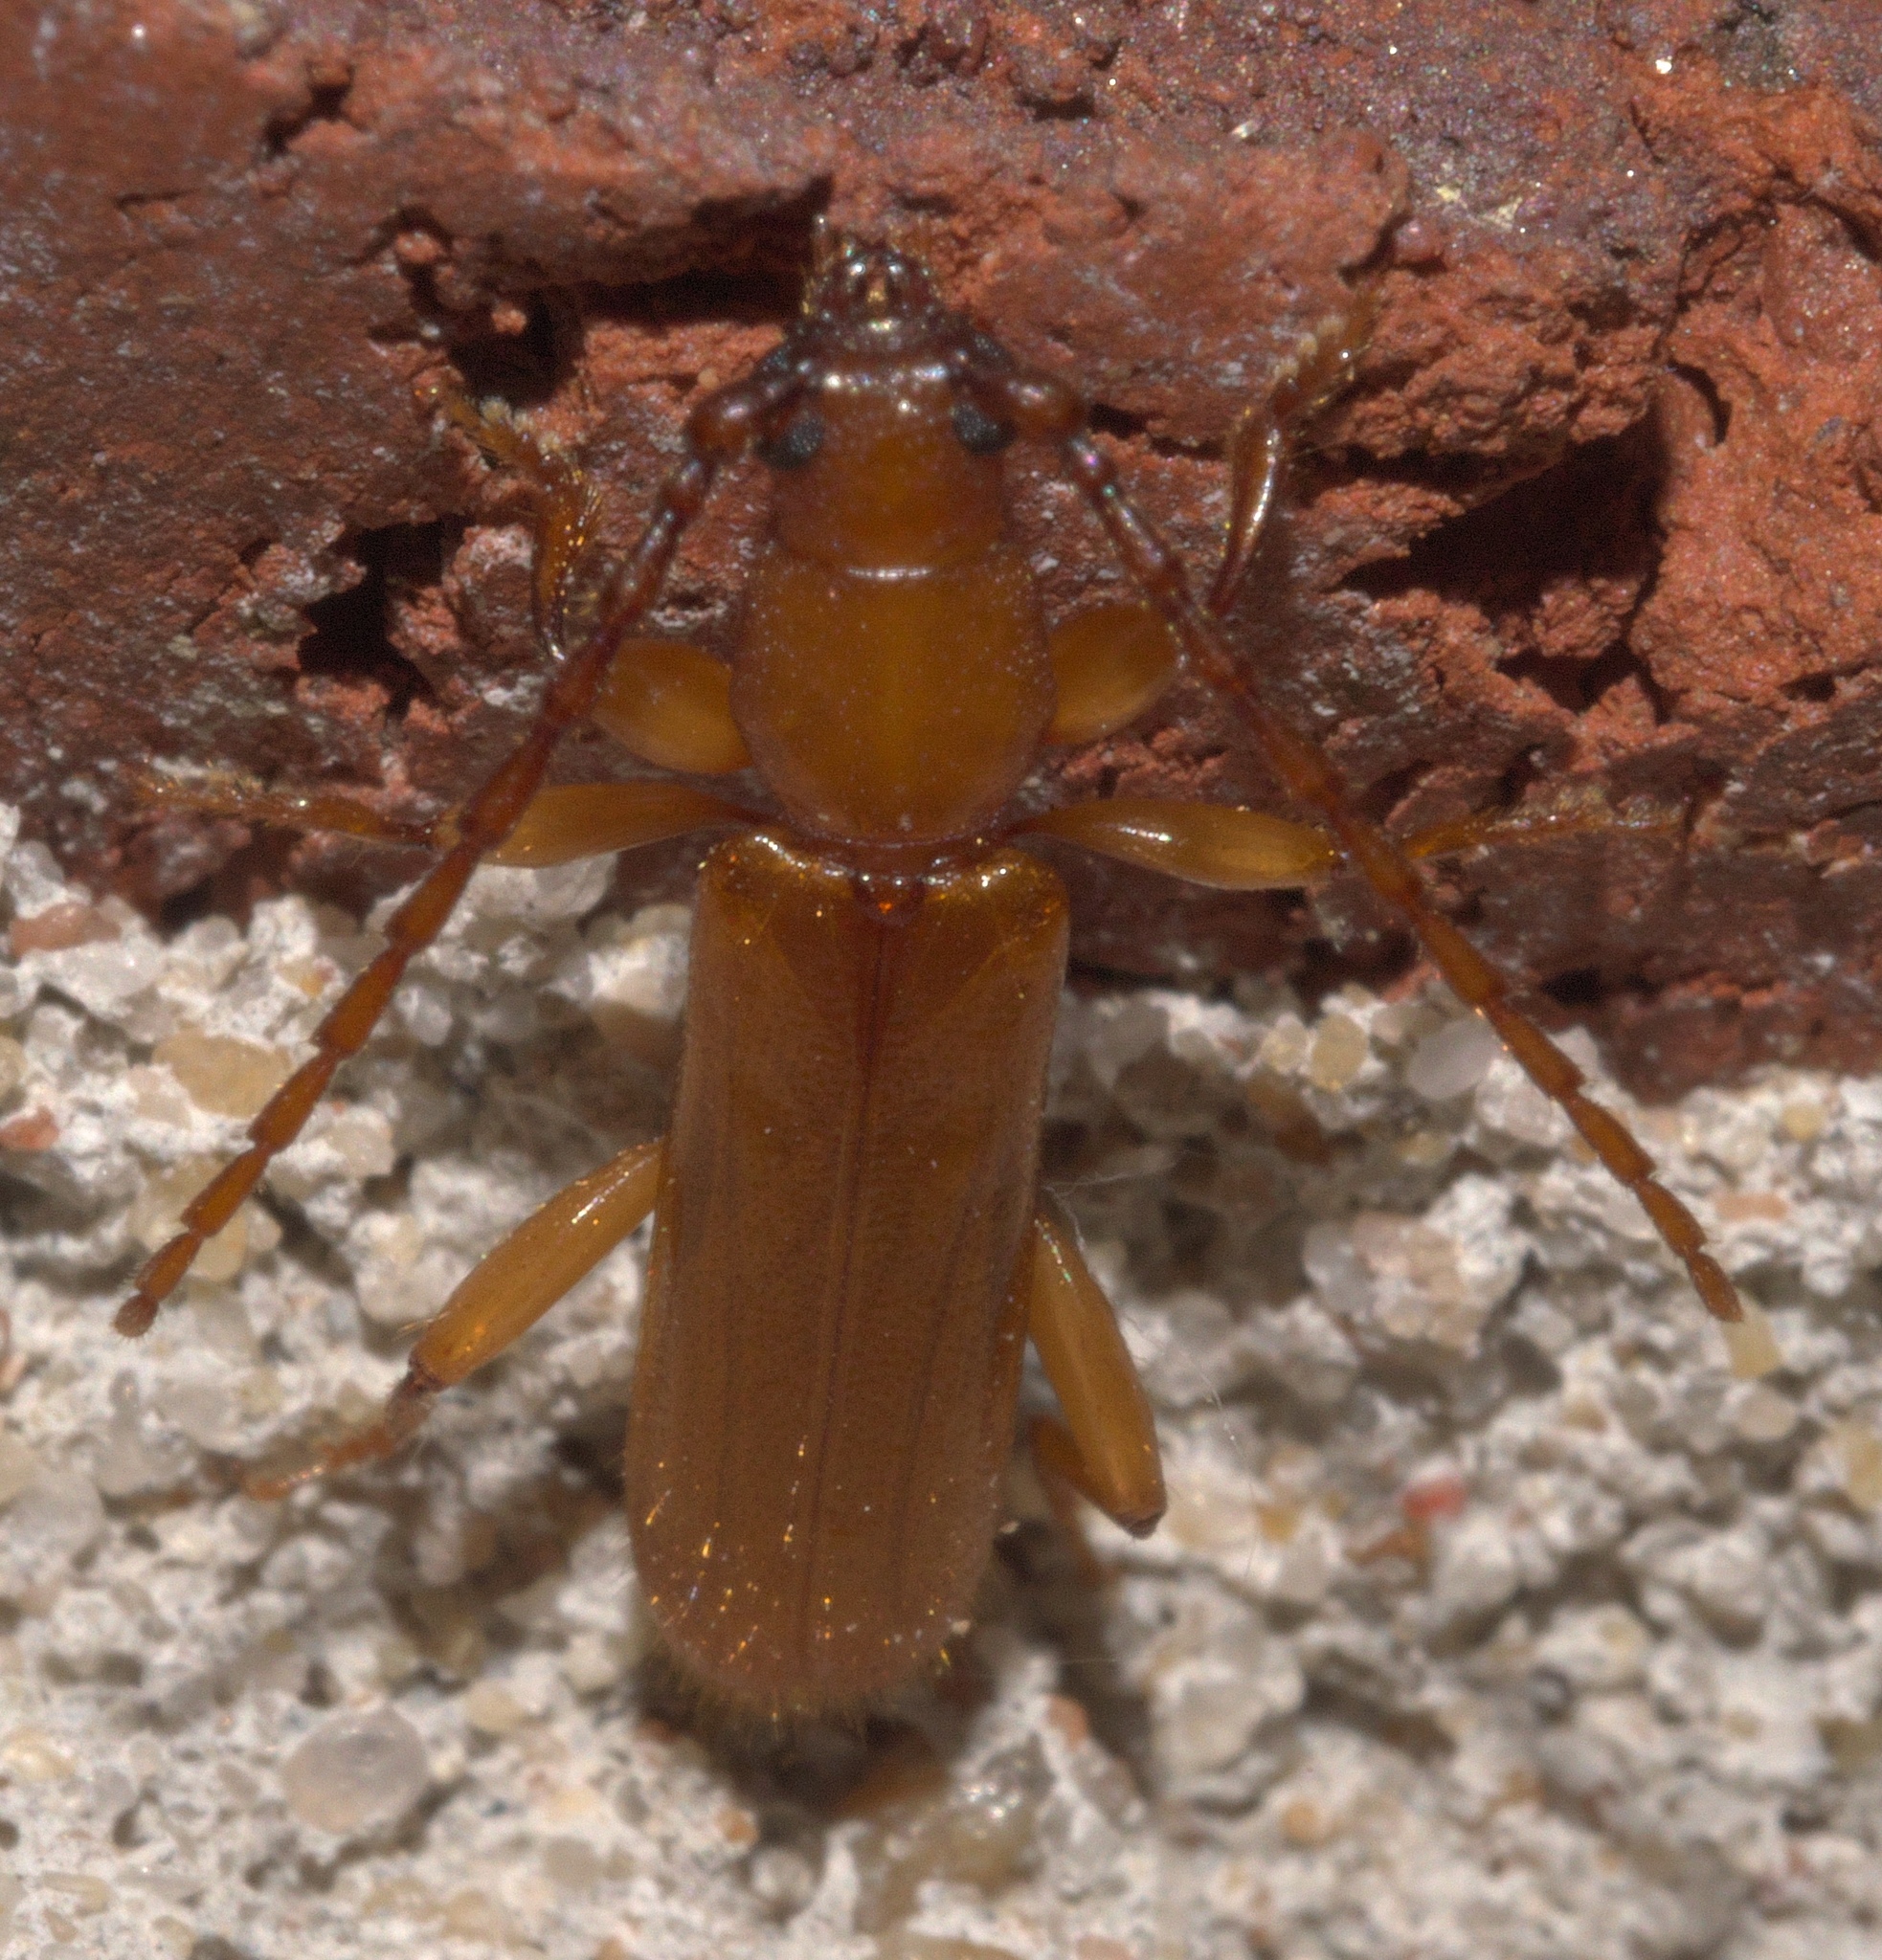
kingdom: Animalia
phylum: Arthropoda
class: Insecta
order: Coleoptera
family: Cerambycidae
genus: Smodicum
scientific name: Smodicum cucujiforme
